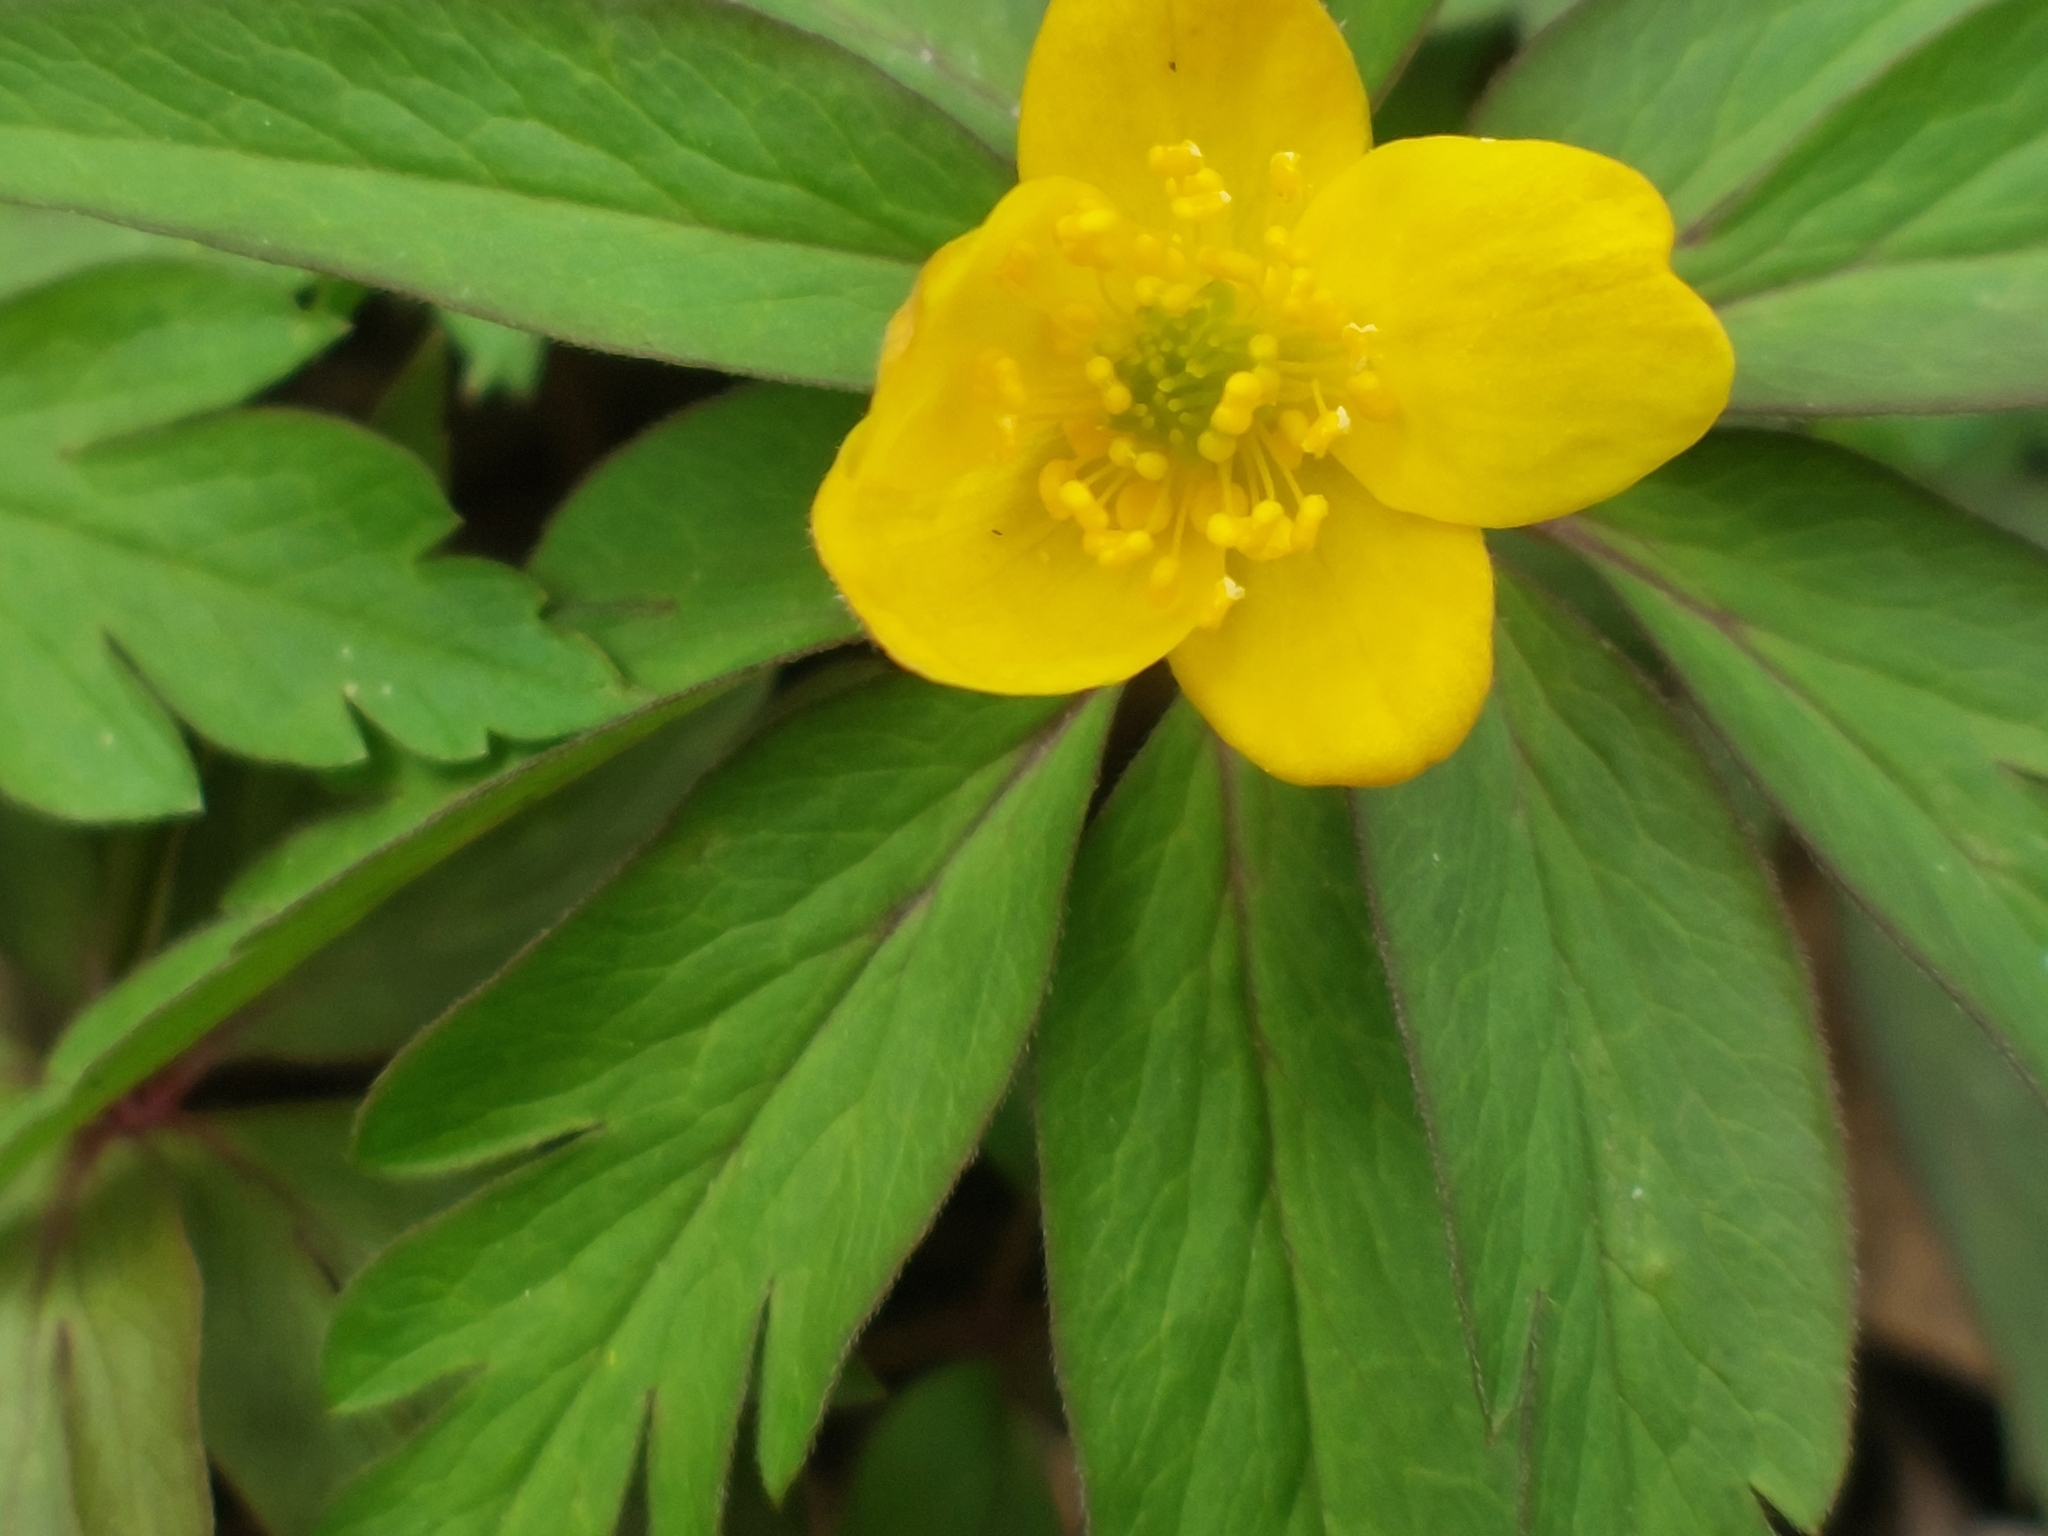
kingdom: Plantae
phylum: Tracheophyta
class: Magnoliopsida
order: Ranunculales
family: Ranunculaceae
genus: Anemone
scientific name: Anemone ranunculoides
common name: Yellow anemone
